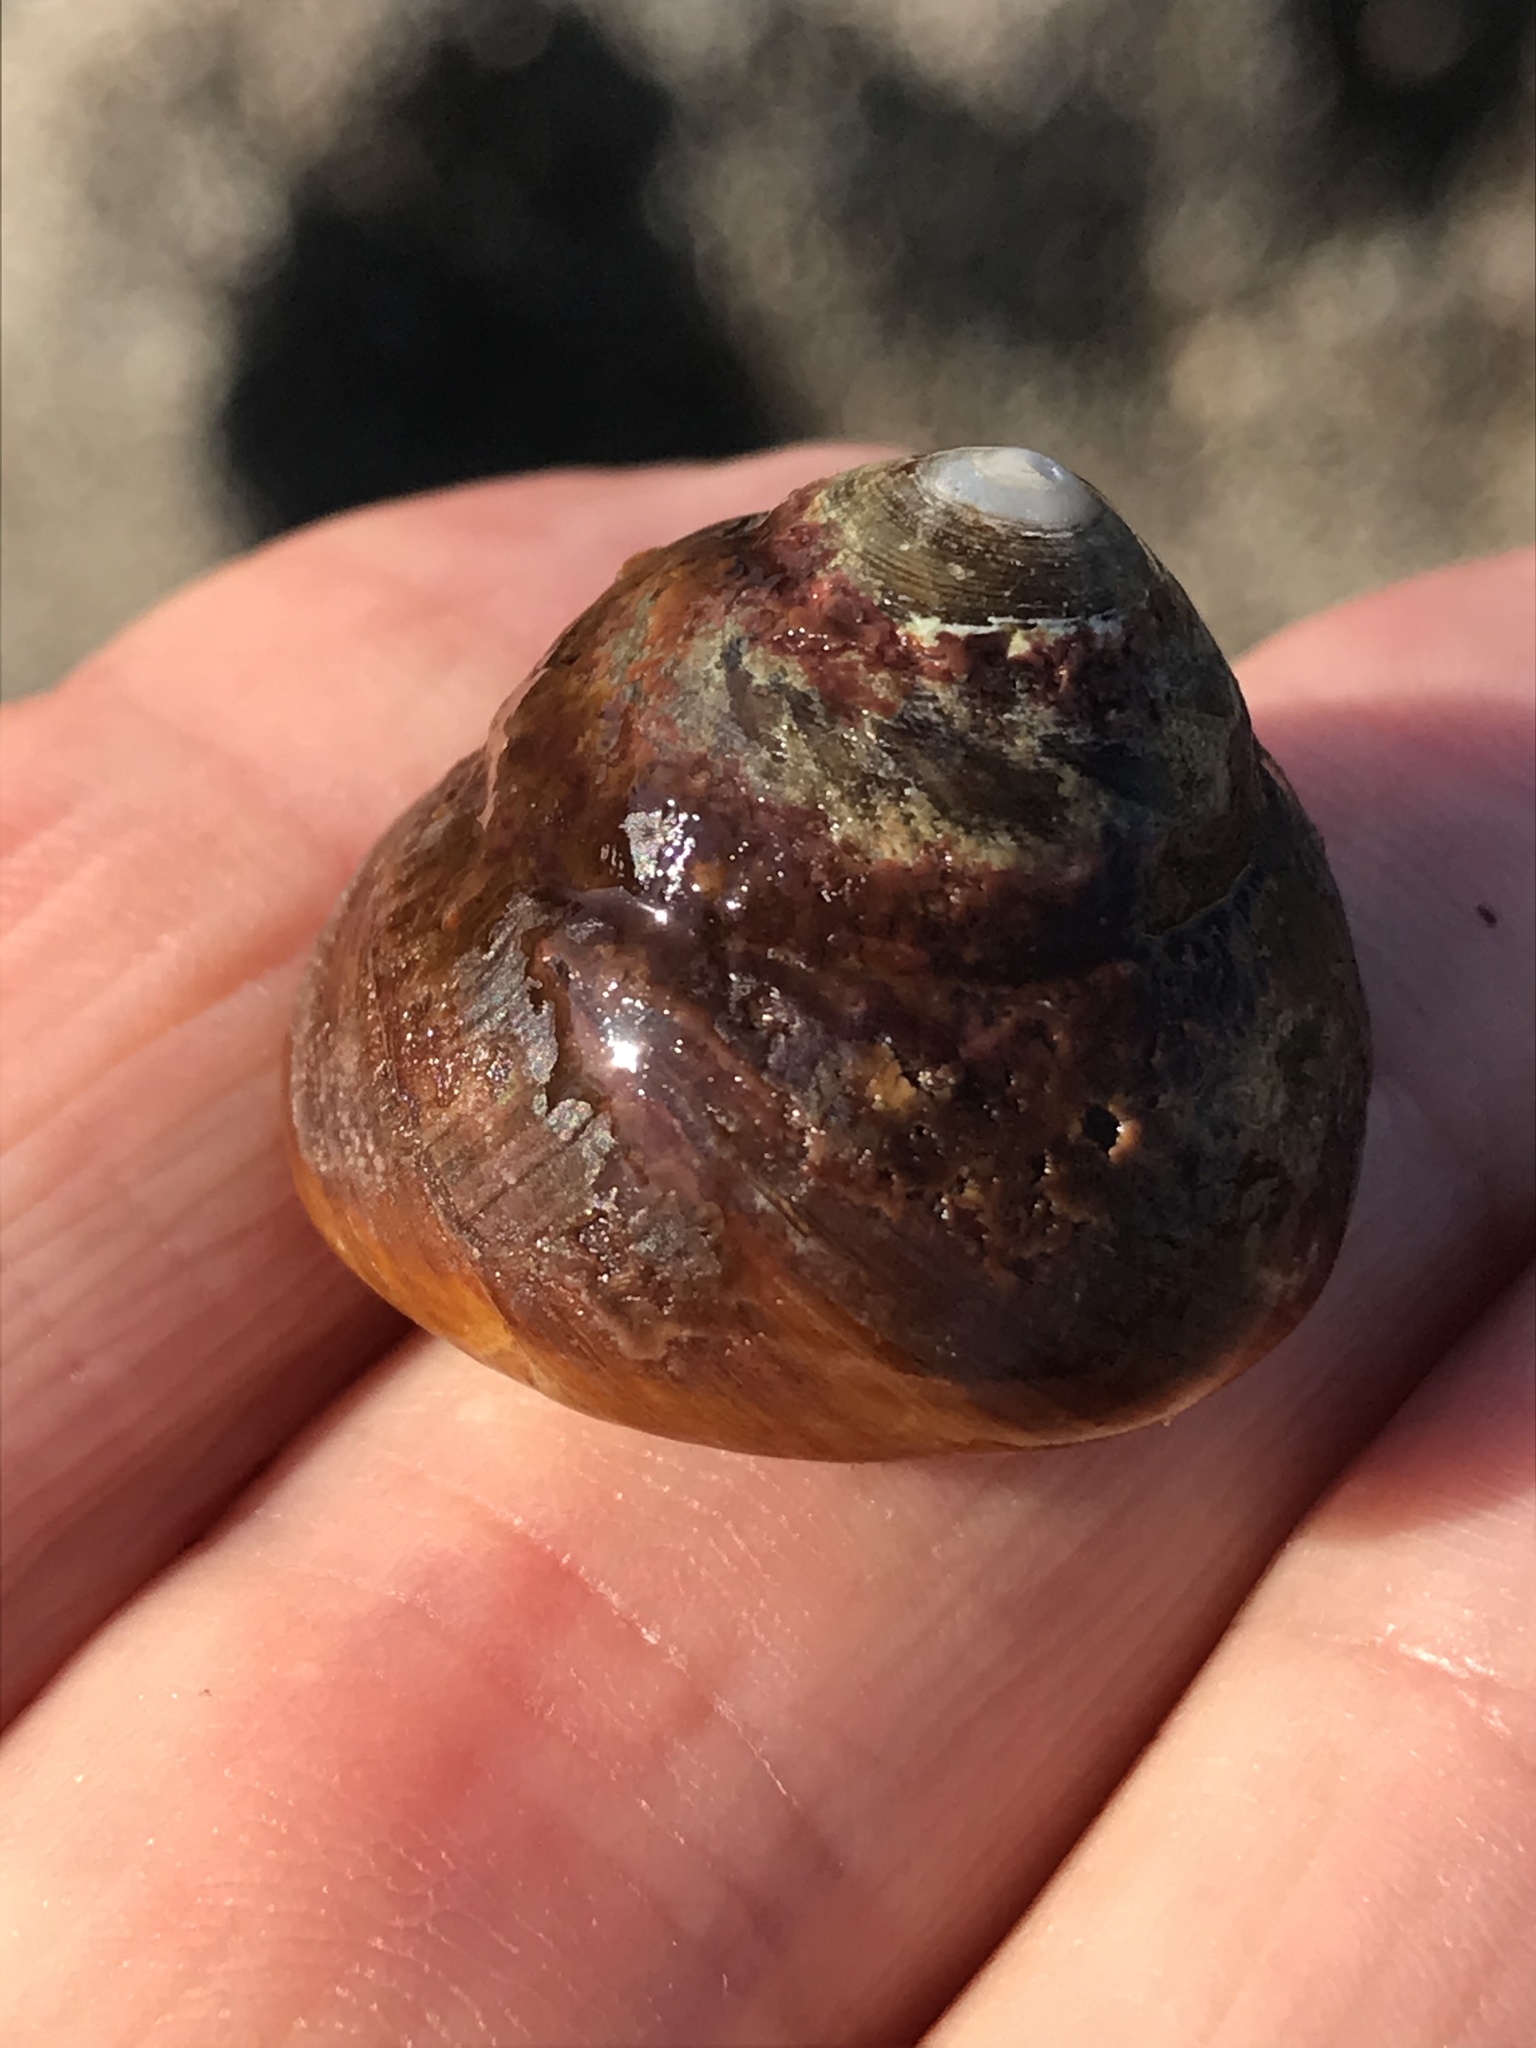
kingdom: Animalia
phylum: Mollusca
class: Gastropoda
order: Trochida
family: Tegulidae
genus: Tegula
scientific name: Tegula brunnea
